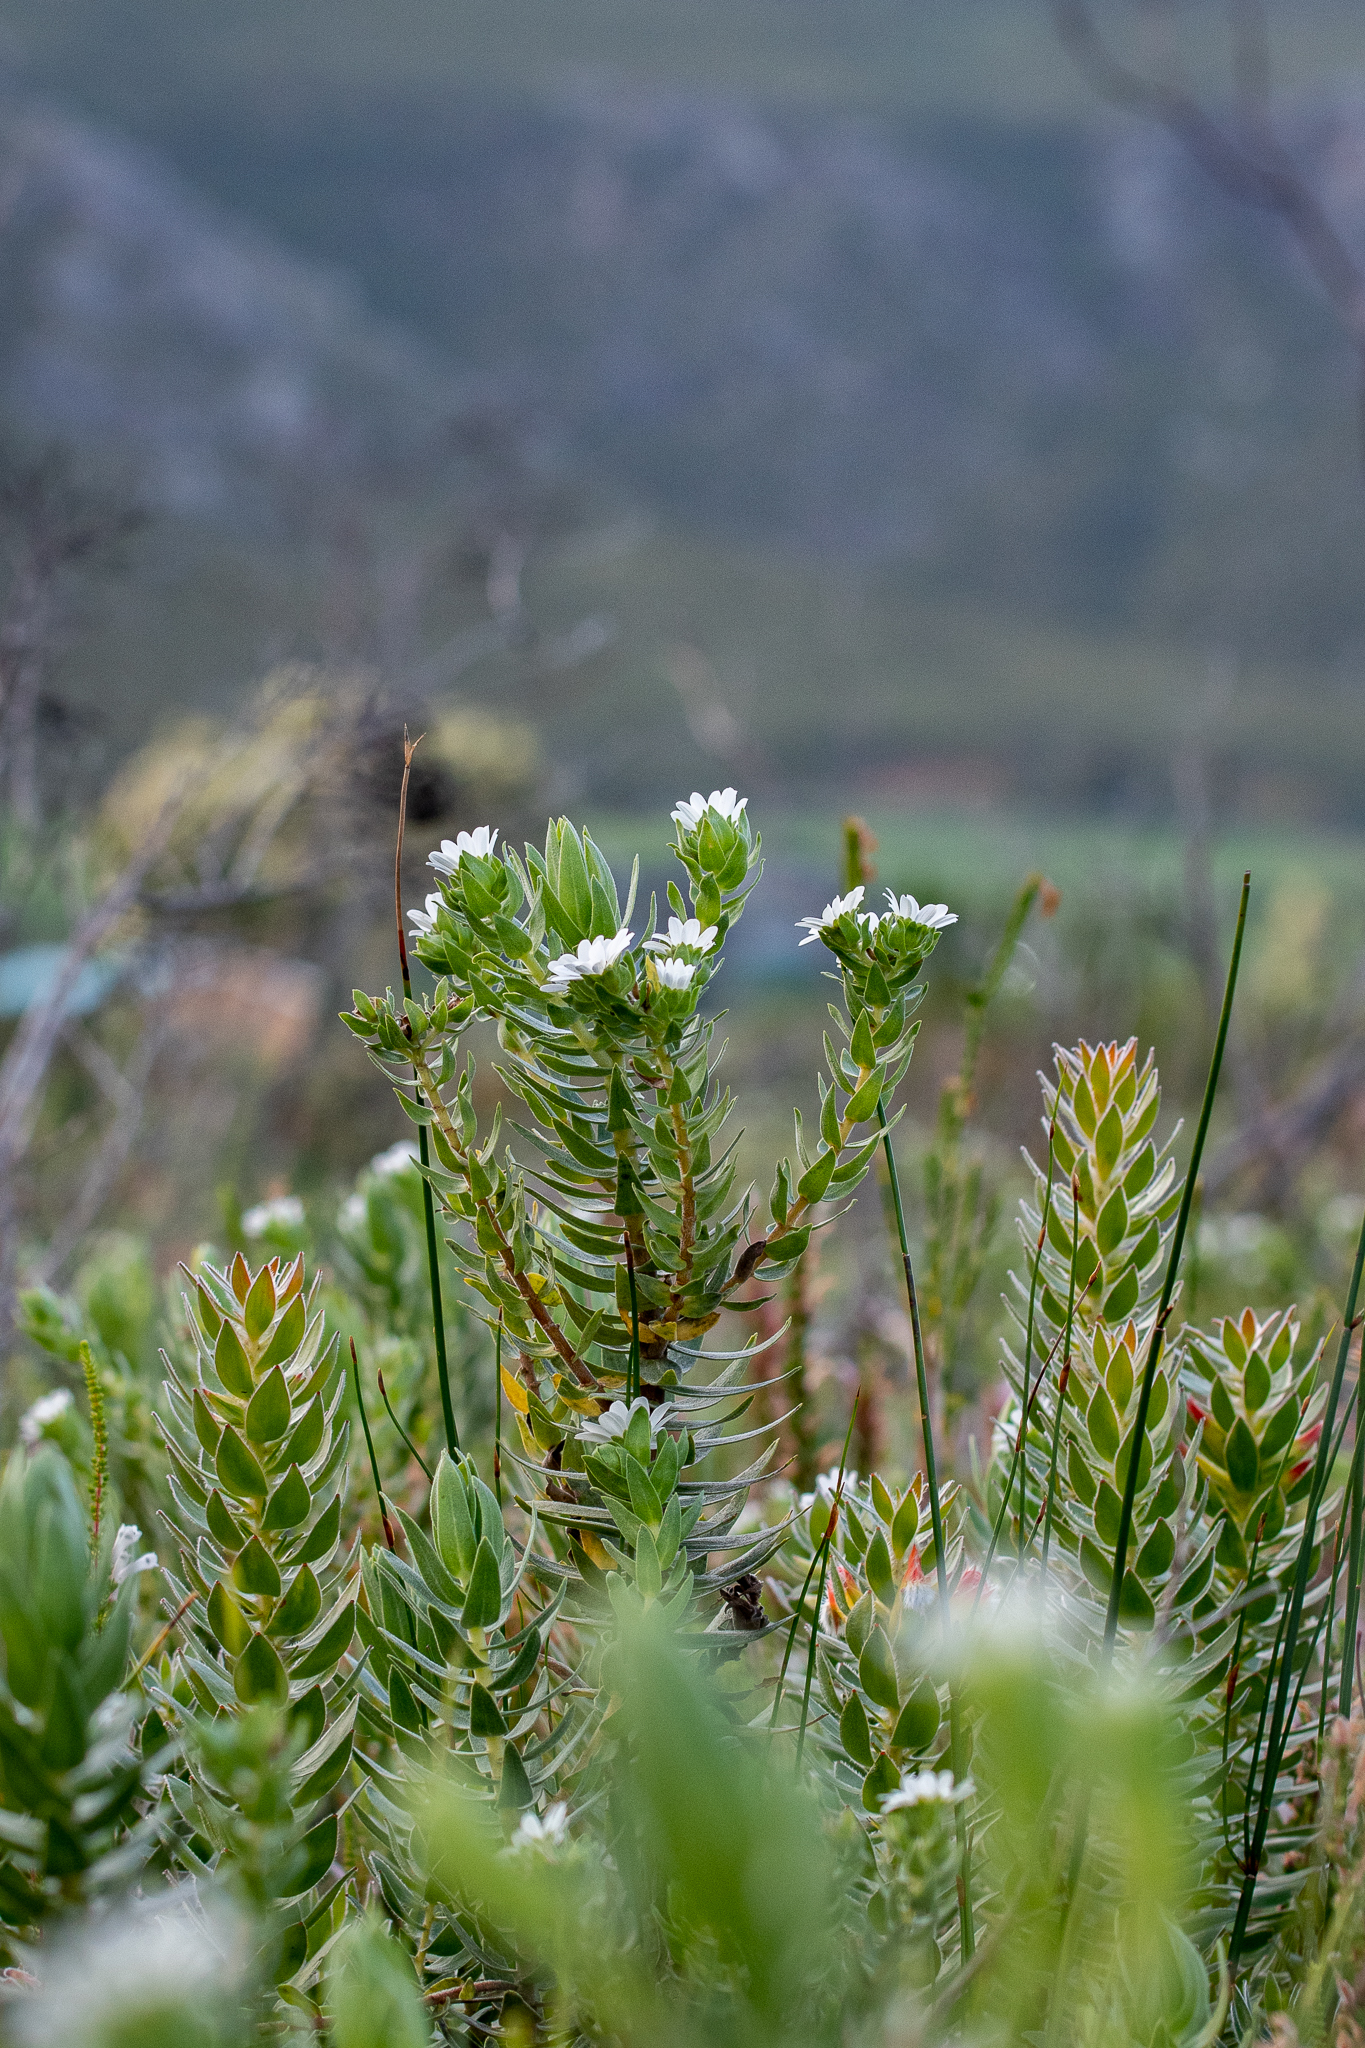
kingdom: Plantae
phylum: Tracheophyta
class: Magnoliopsida
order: Asterales
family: Asteraceae
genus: Osmitopsis
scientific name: Osmitopsis asteriscoides
